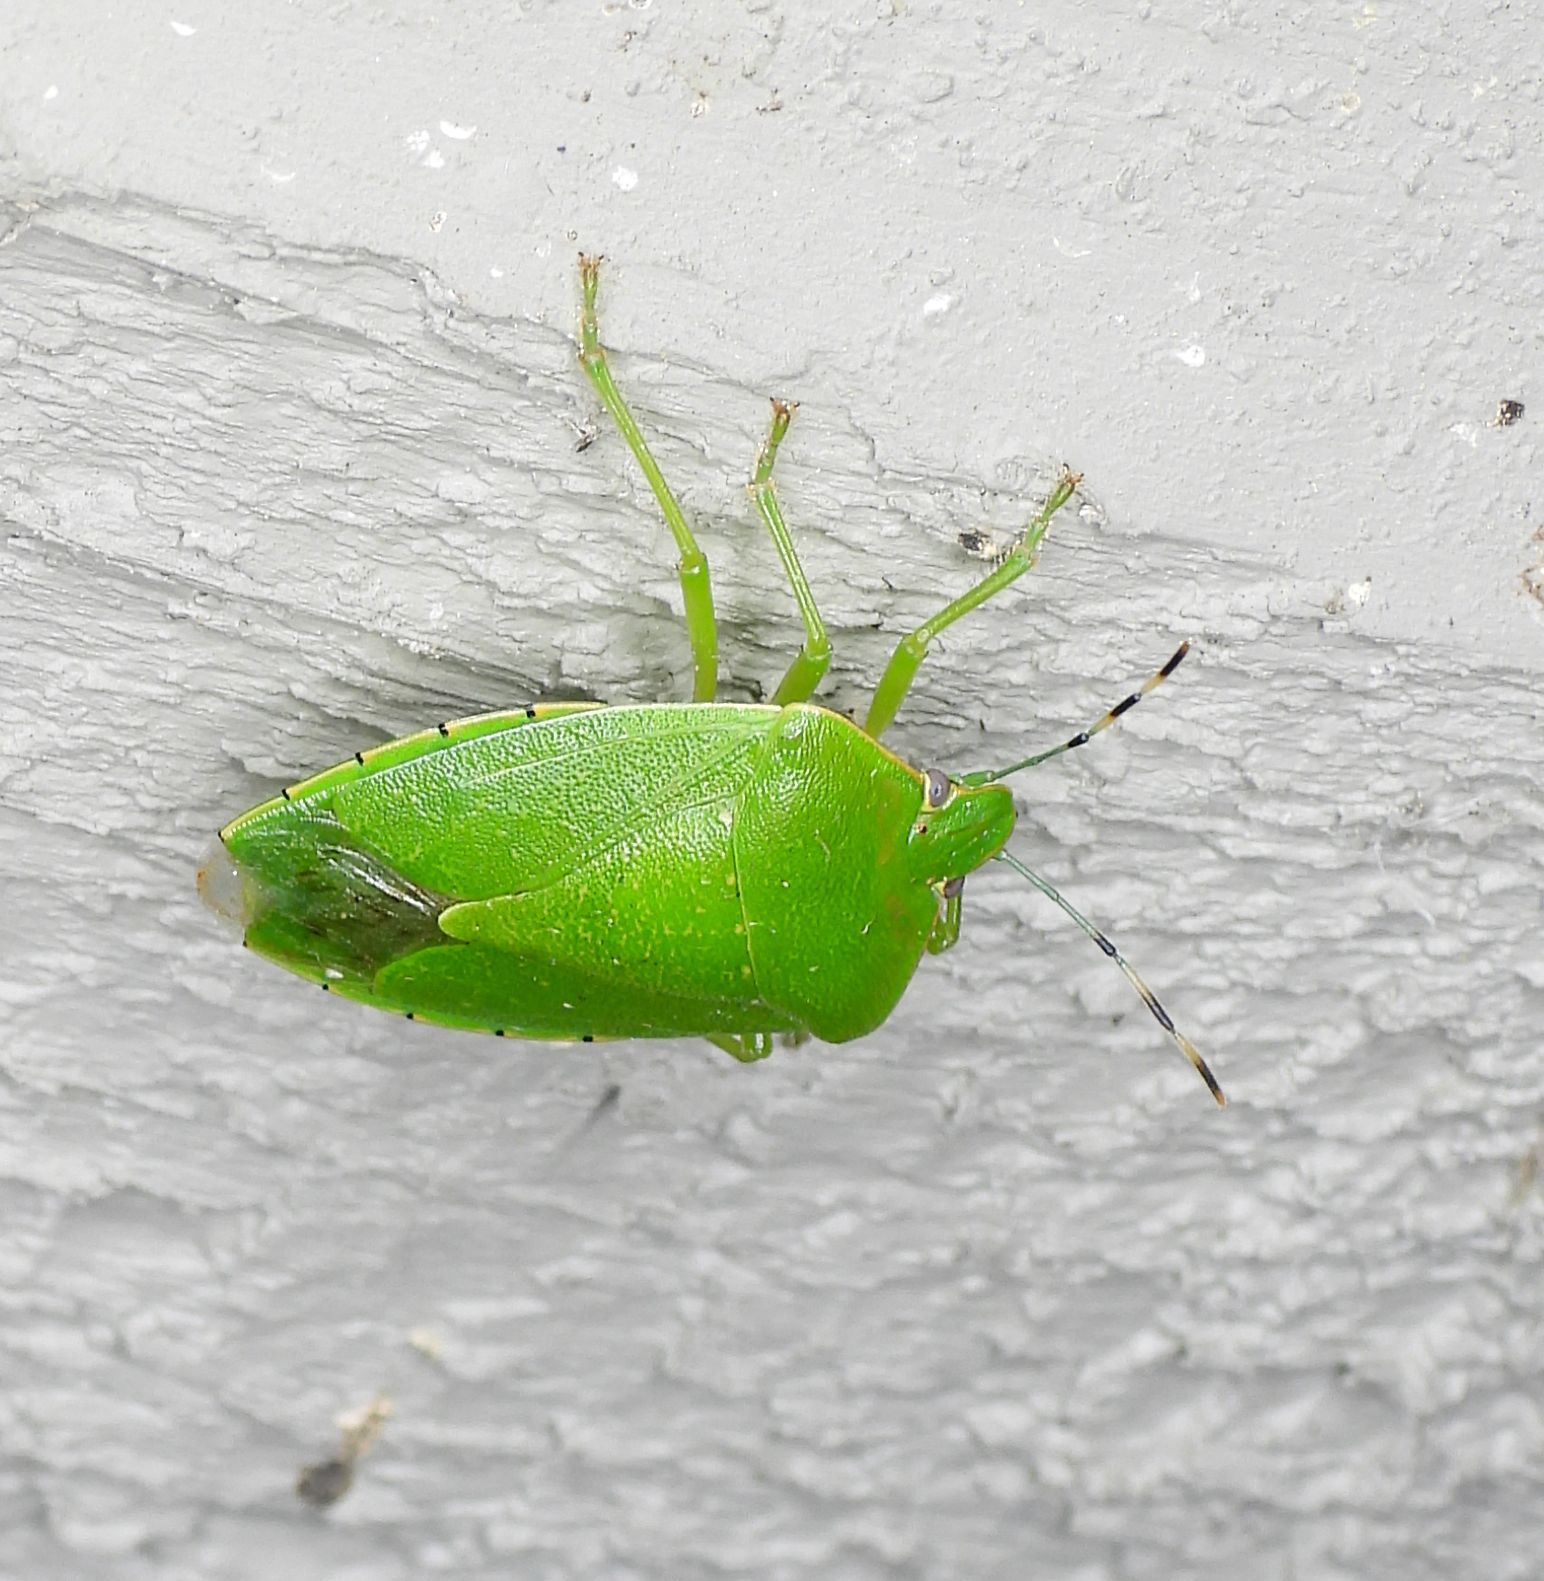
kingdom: Animalia
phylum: Arthropoda
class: Insecta
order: Hemiptera
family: Pentatomidae
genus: Chinavia
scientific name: Chinavia hilaris
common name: Green stink bug
